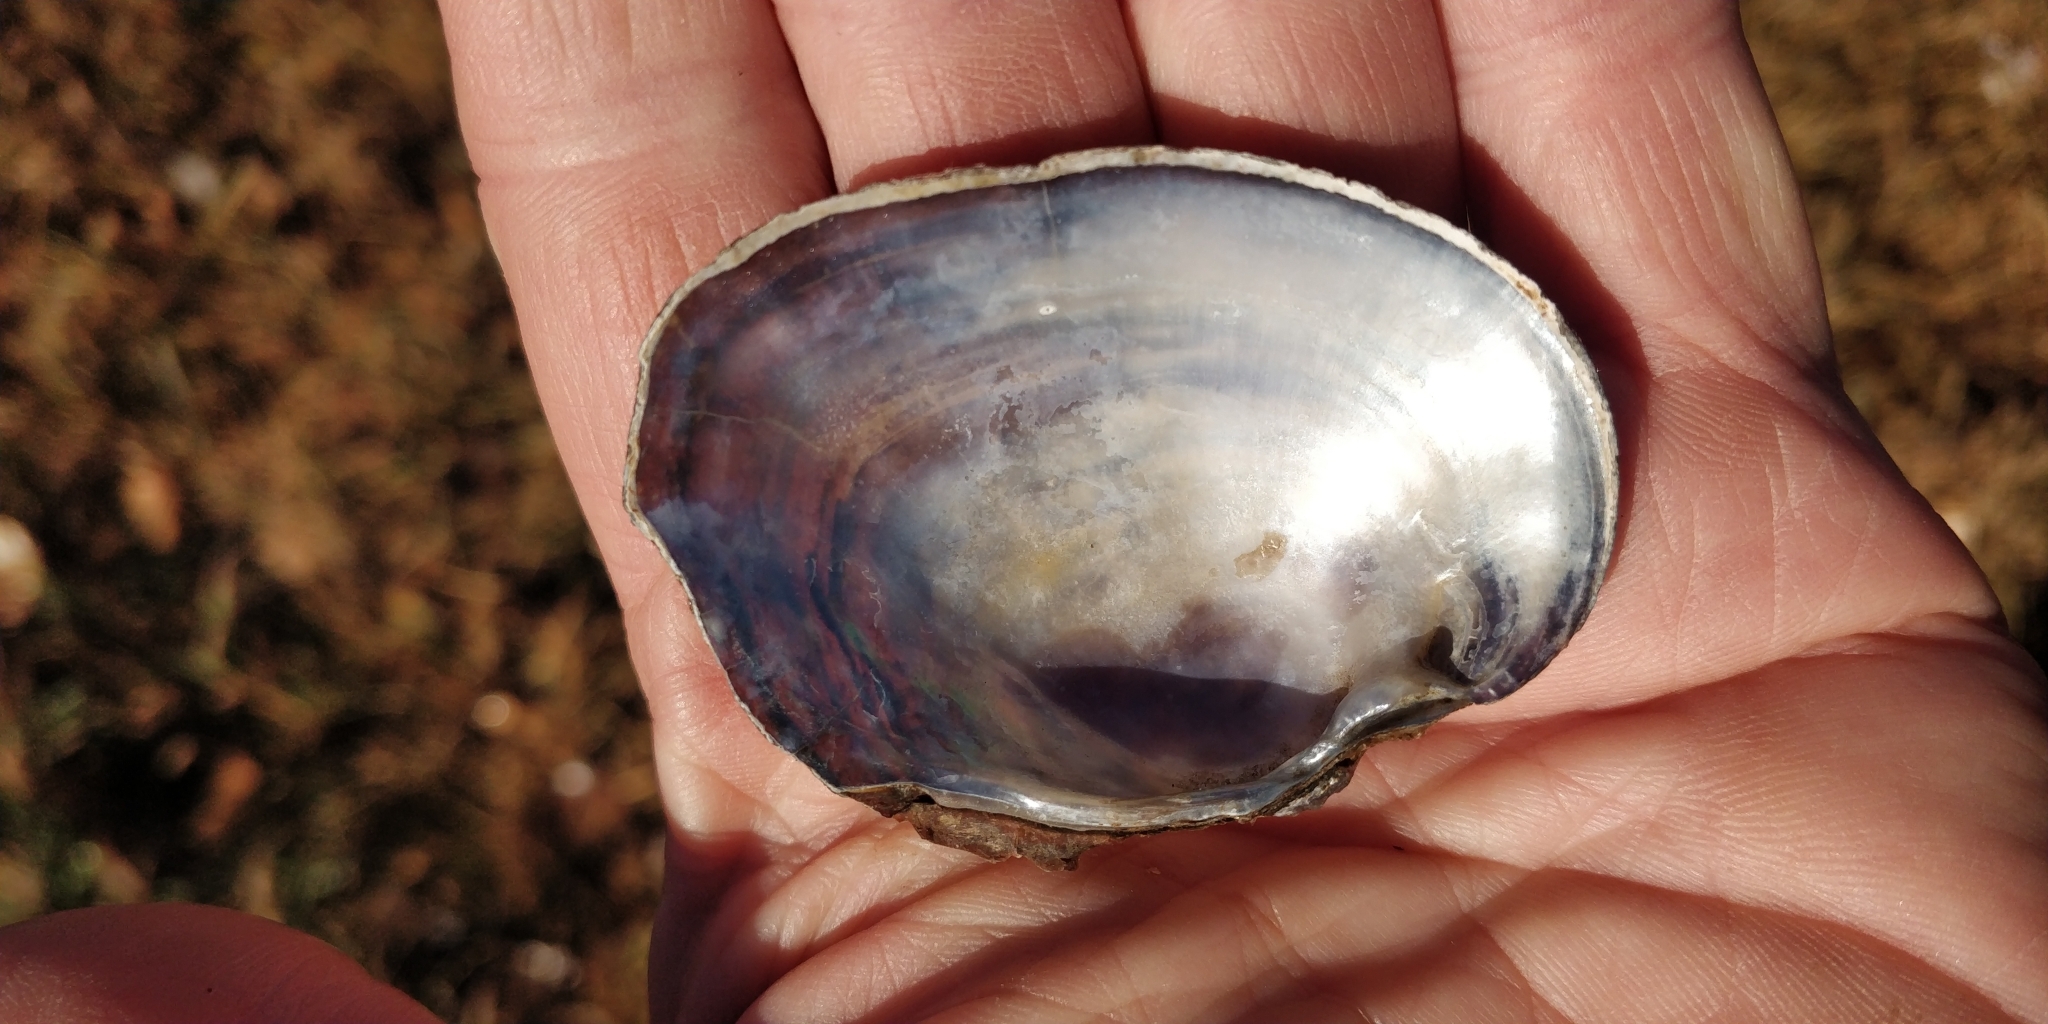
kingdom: Animalia
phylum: Mollusca
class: Bivalvia
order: Unionida
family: Unionidae
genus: Arcidens
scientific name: Arcidens confragosus
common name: Rock pocketbook
